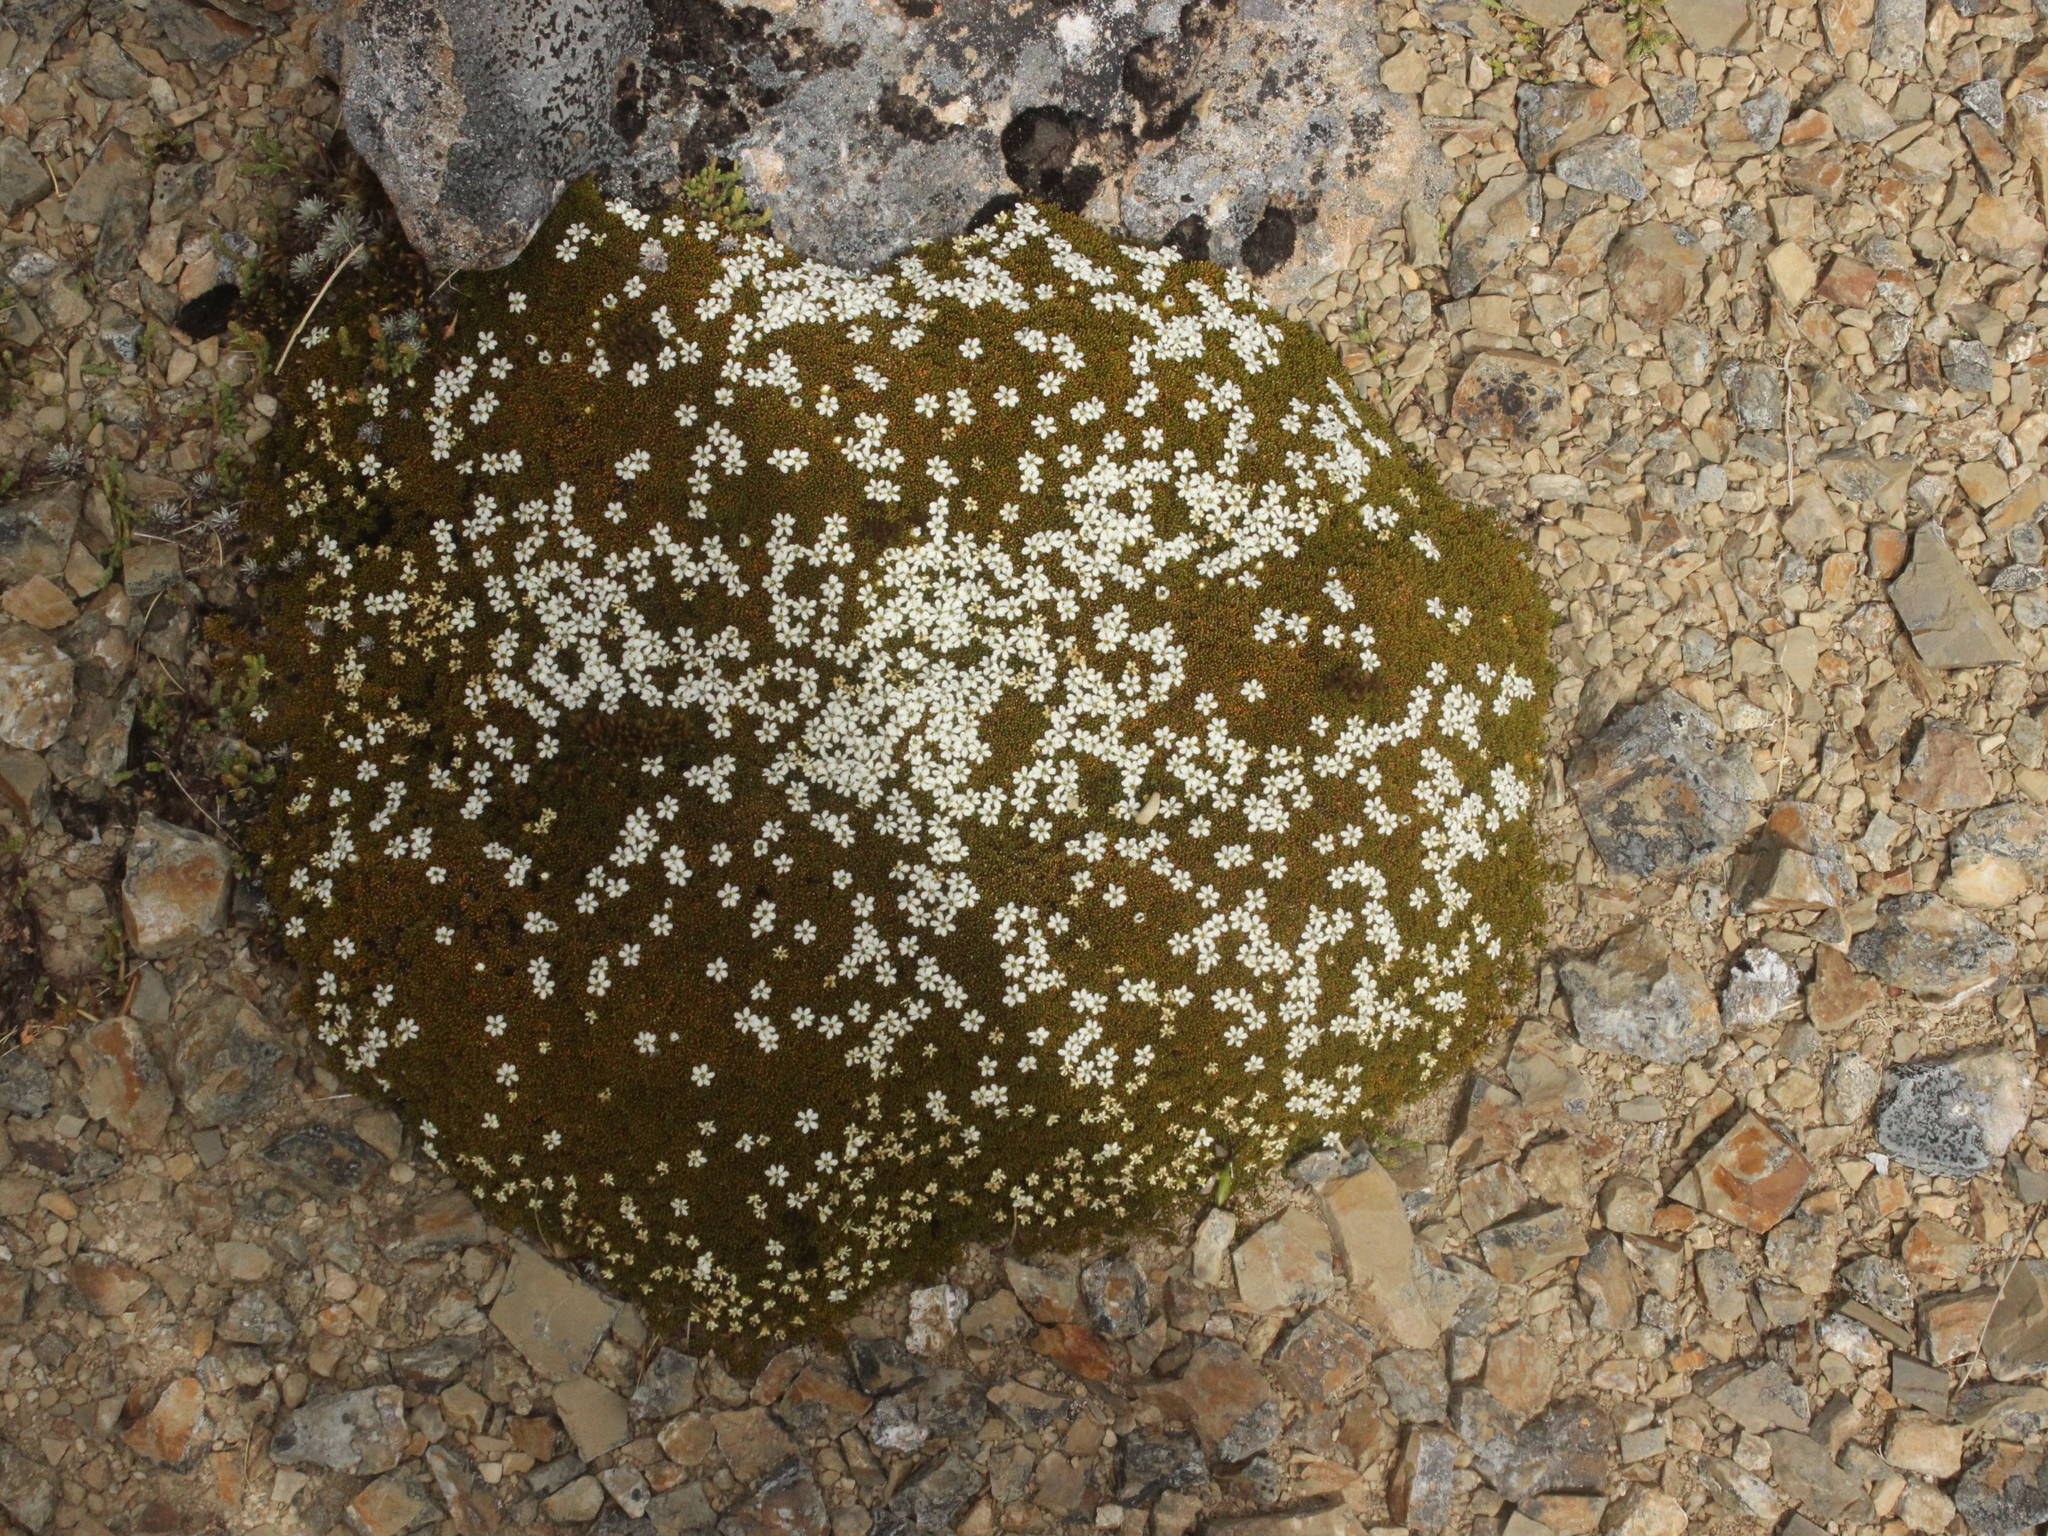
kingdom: Plantae
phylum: Tracheophyta
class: Magnoliopsida
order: Asterales
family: Stylidiaceae
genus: Phyllachne
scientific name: Phyllachne colensoi
